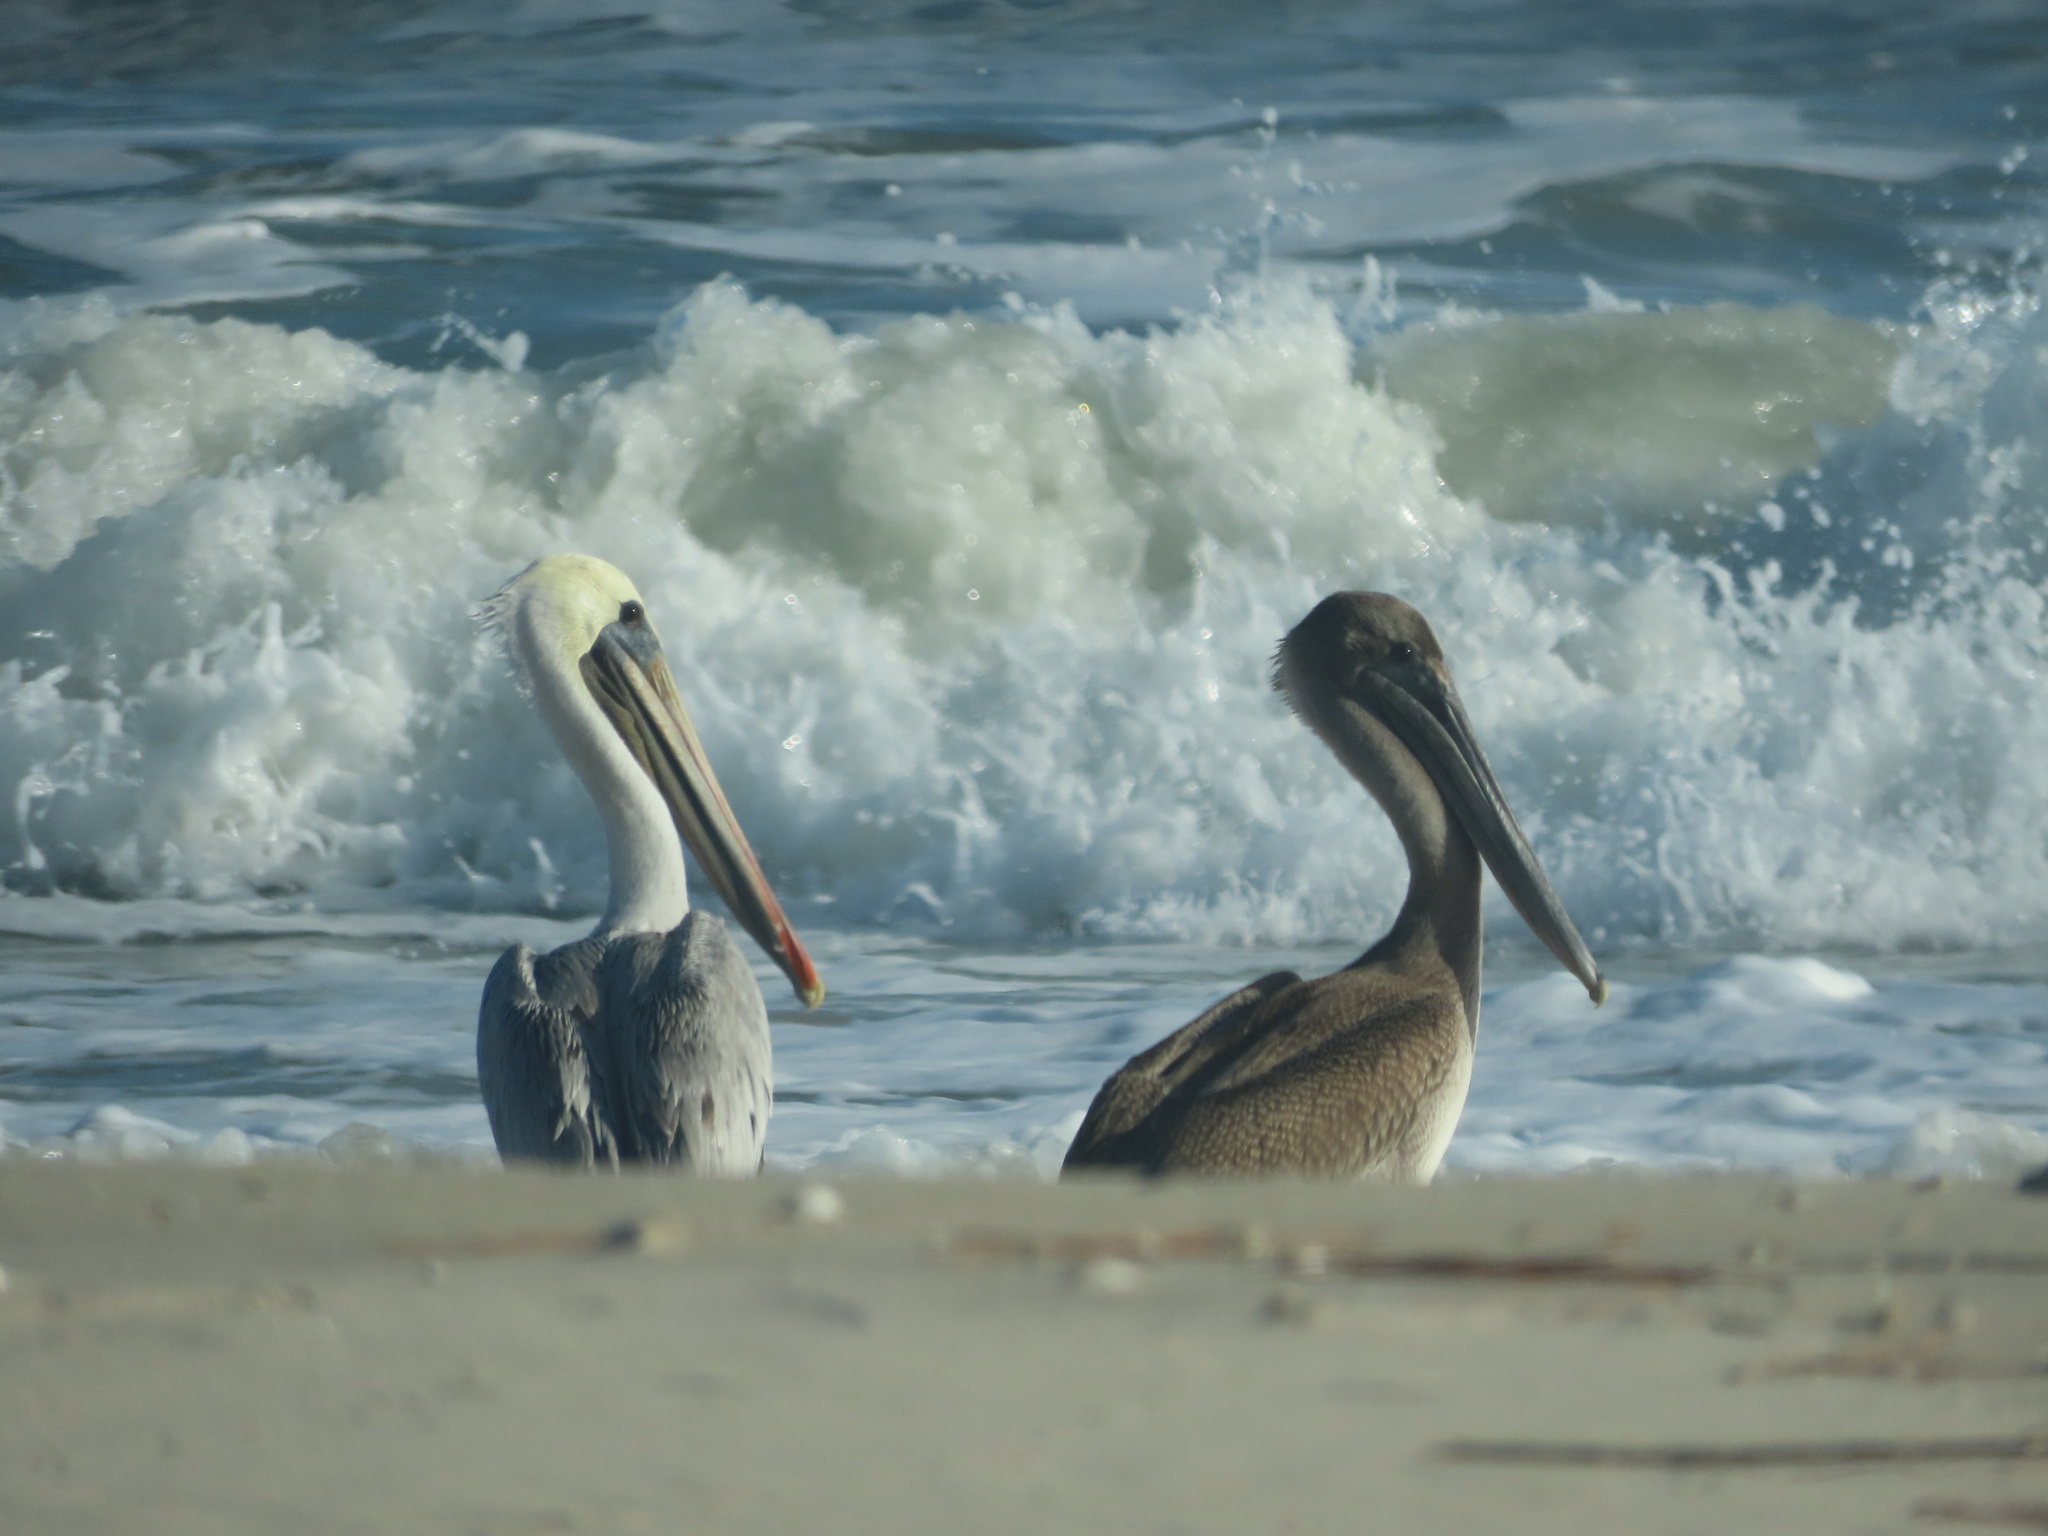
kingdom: Animalia
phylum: Chordata
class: Aves
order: Pelecaniformes
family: Pelecanidae
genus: Pelecanus
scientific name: Pelecanus occidentalis
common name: Brown pelican
